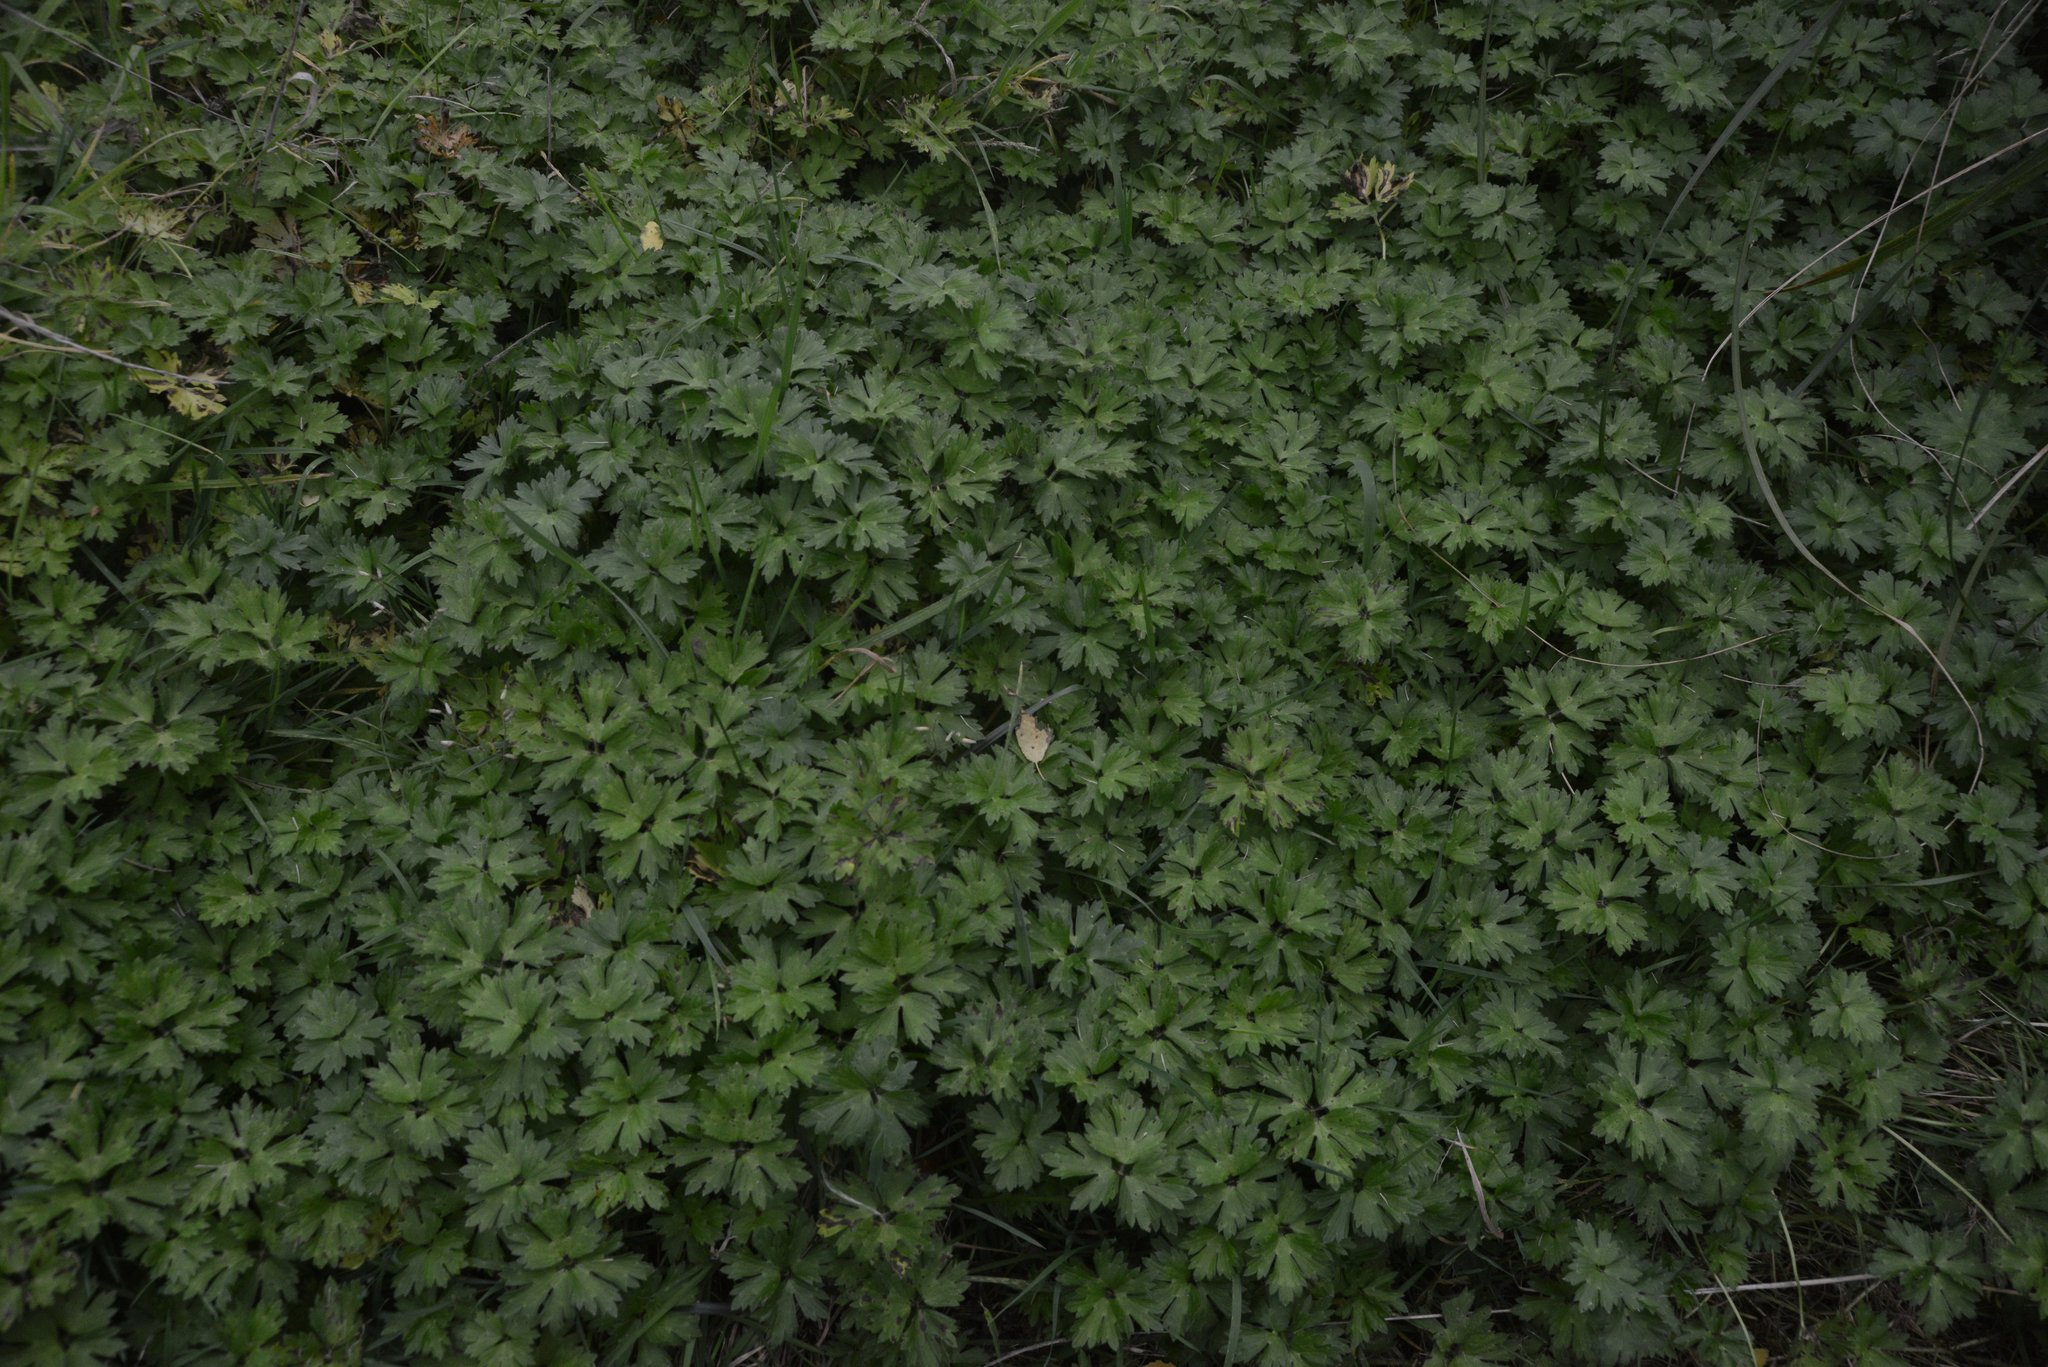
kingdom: Plantae
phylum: Tracheophyta
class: Magnoliopsida
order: Ranunculales
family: Ranunculaceae
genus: Ranunculus
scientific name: Ranunculus repens
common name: Creeping buttercup
